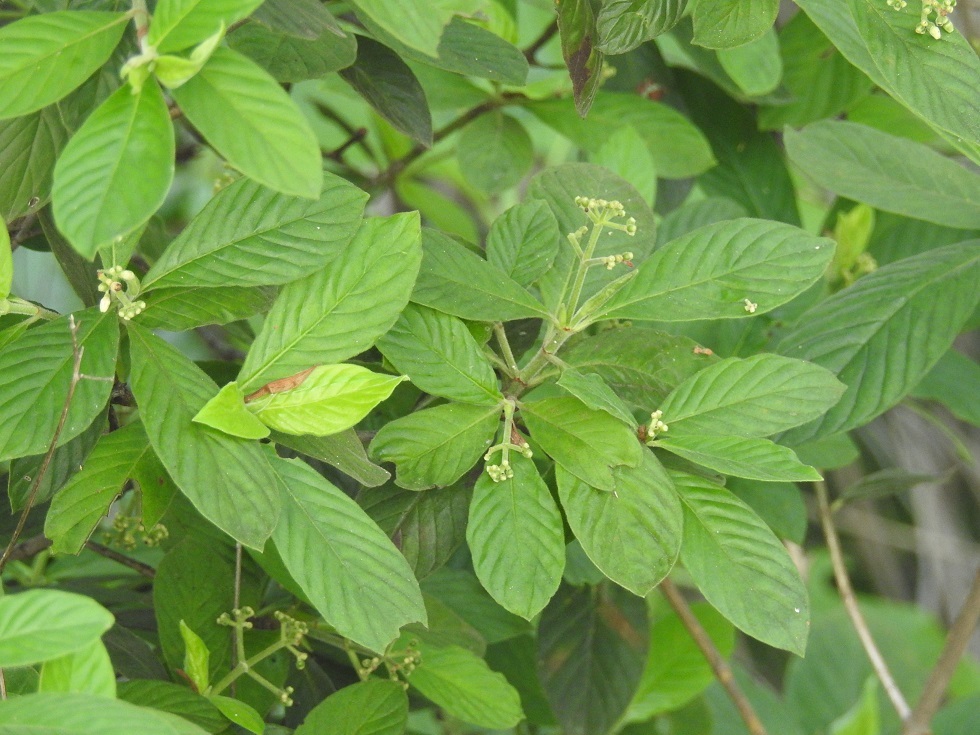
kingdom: Plantae
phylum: Tracheophyta
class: Magnoliopsida
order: Gentianales
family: Rubiaceae
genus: Psychotria
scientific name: Psychotria erythrocarpa
